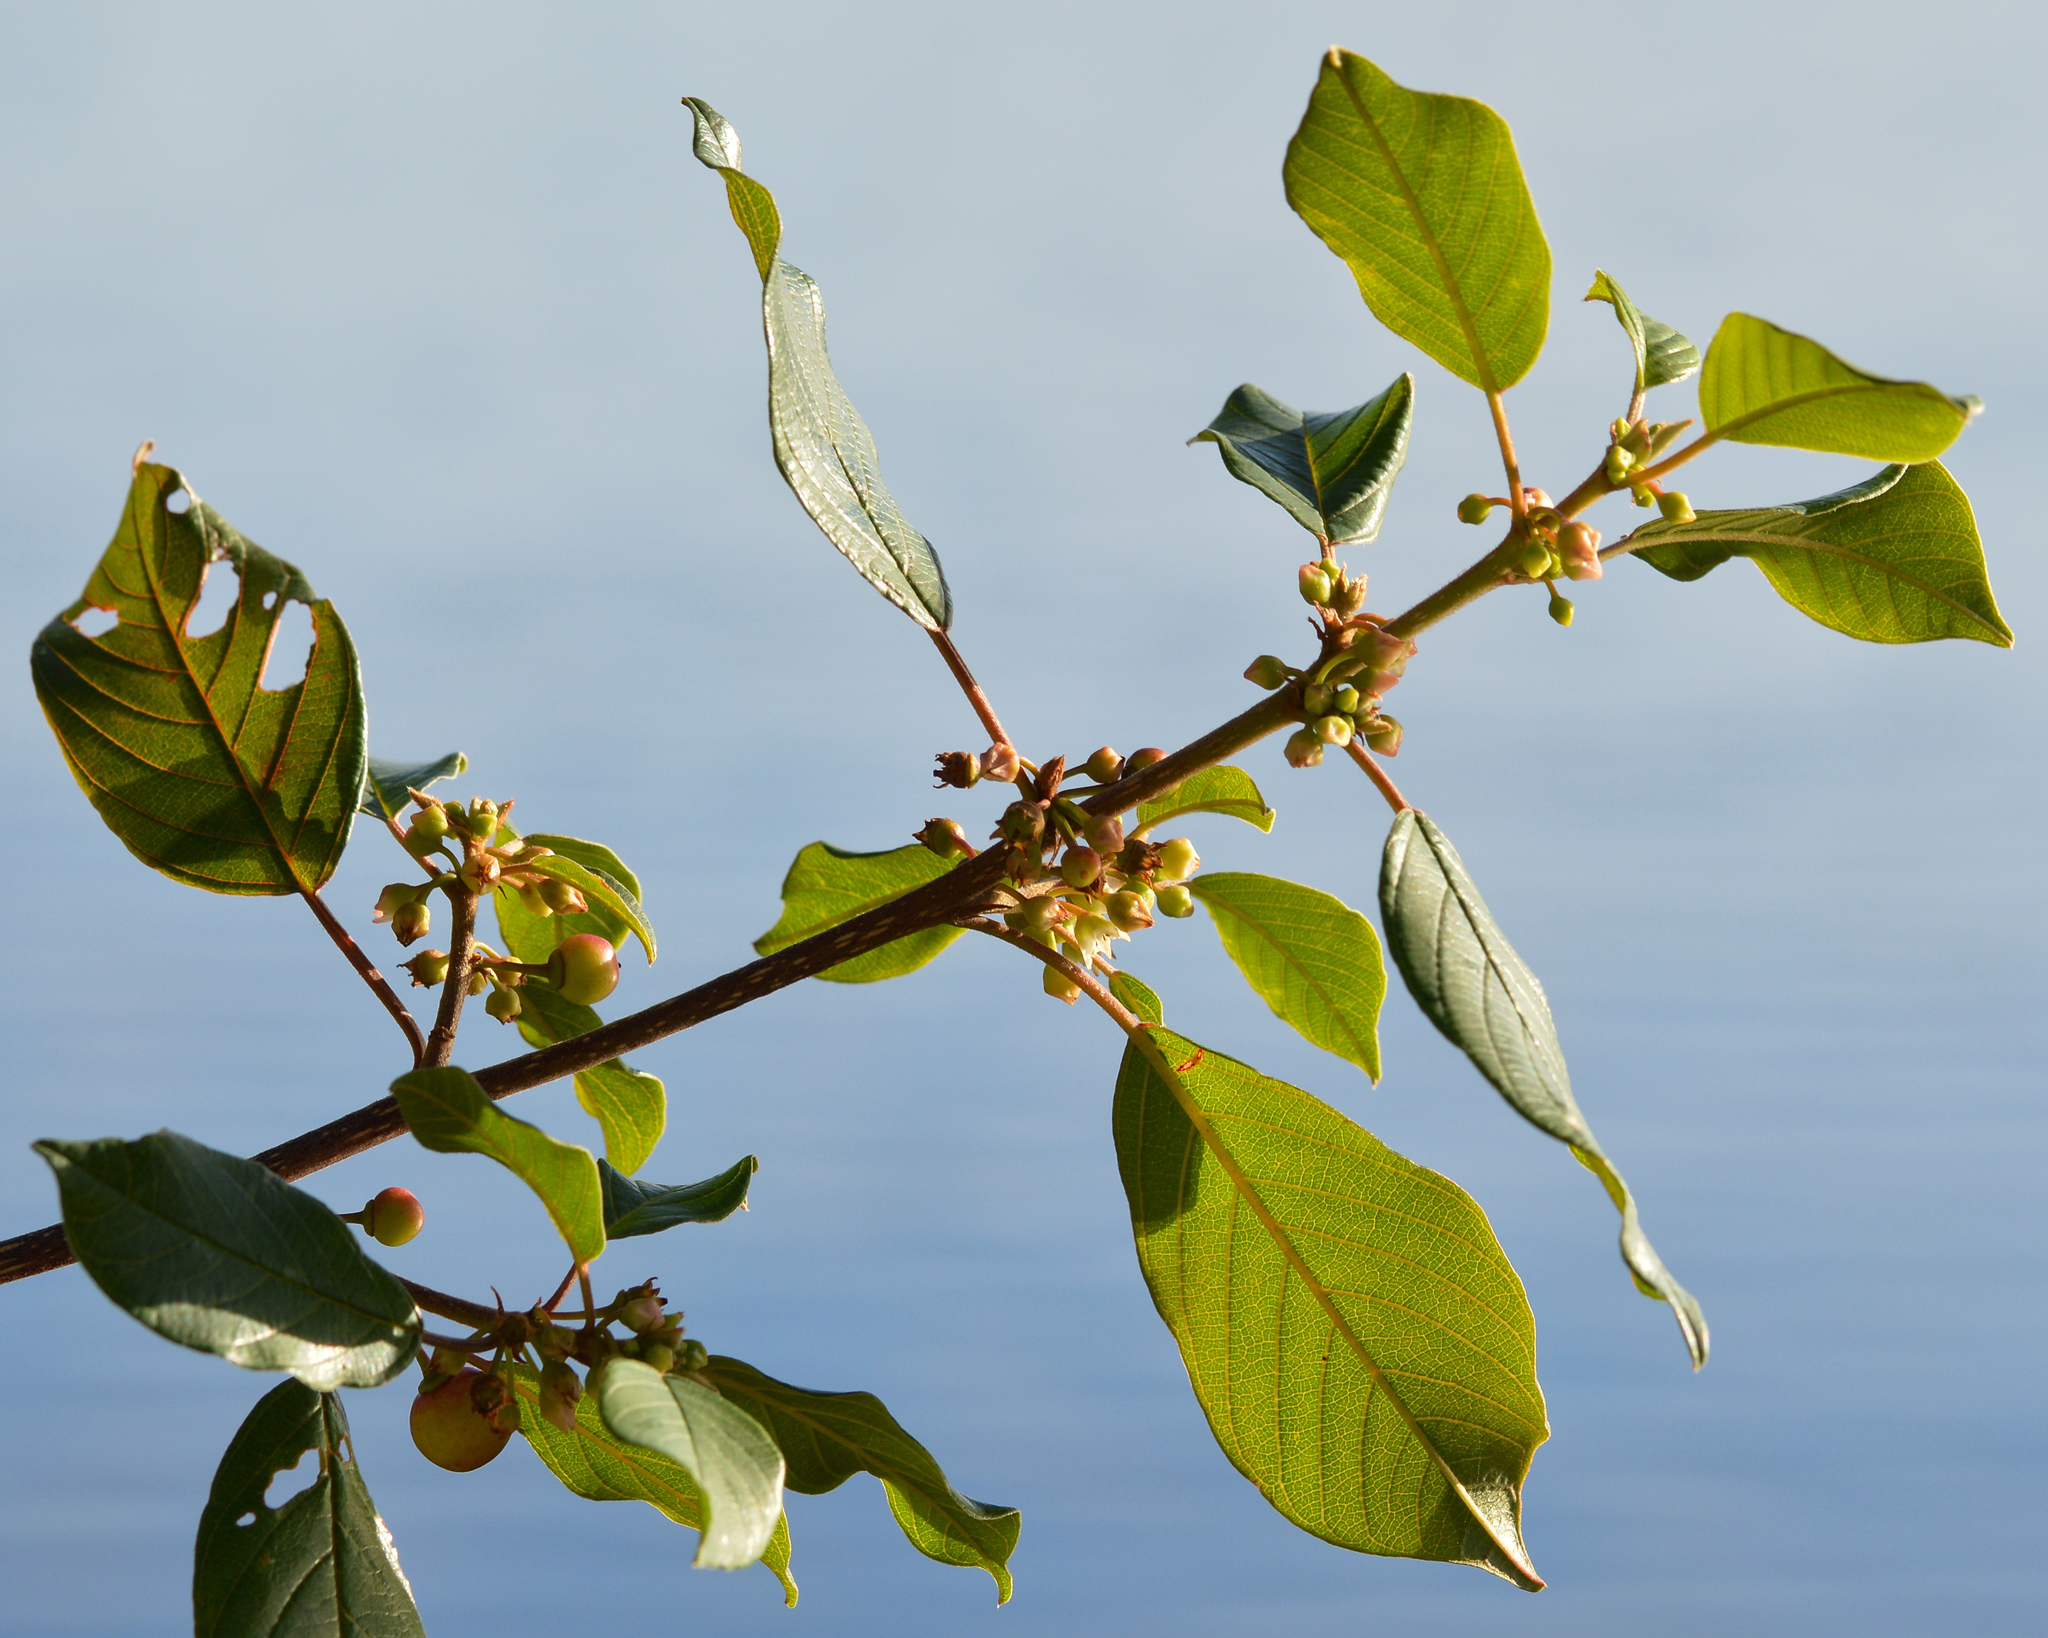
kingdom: Plantae
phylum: Tracheophyta
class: Magnoliopsida
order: Rosales
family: Rhamnaceae
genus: Frangula
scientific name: Frangula alnus
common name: Alder buckthorn
